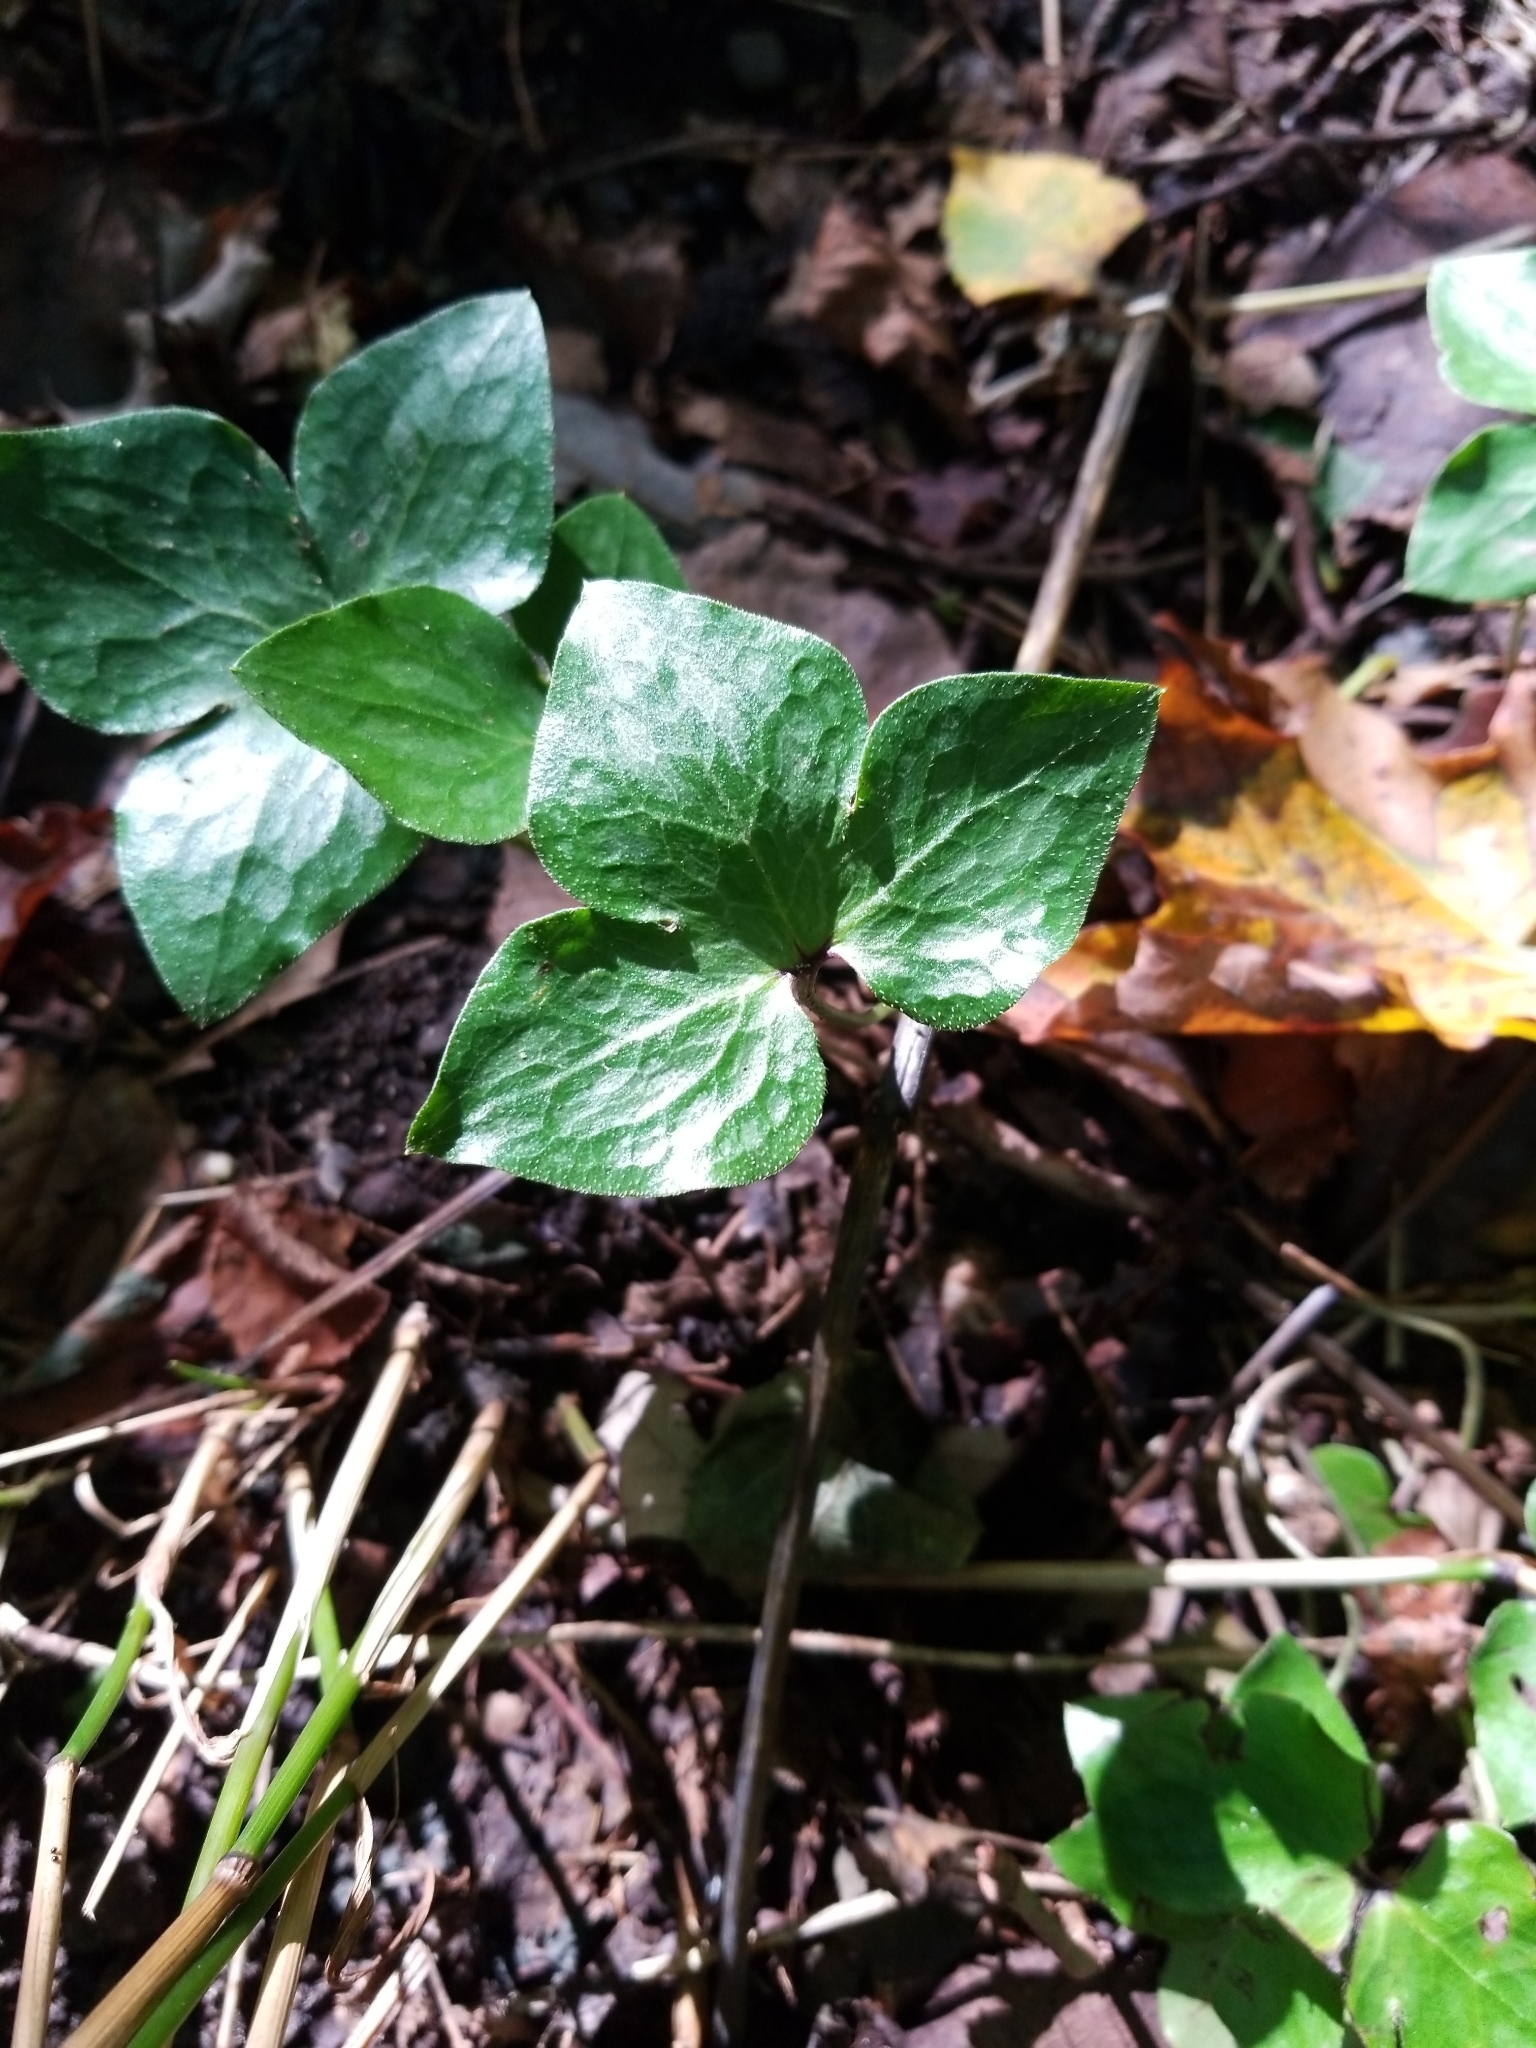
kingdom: Plantae
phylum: Tracheophyta
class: Magnoliopsida
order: Ranunculales
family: Ranunculaceae
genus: Hepatica
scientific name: Hepatica acutiloba
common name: Sharp-lobed hepatica
